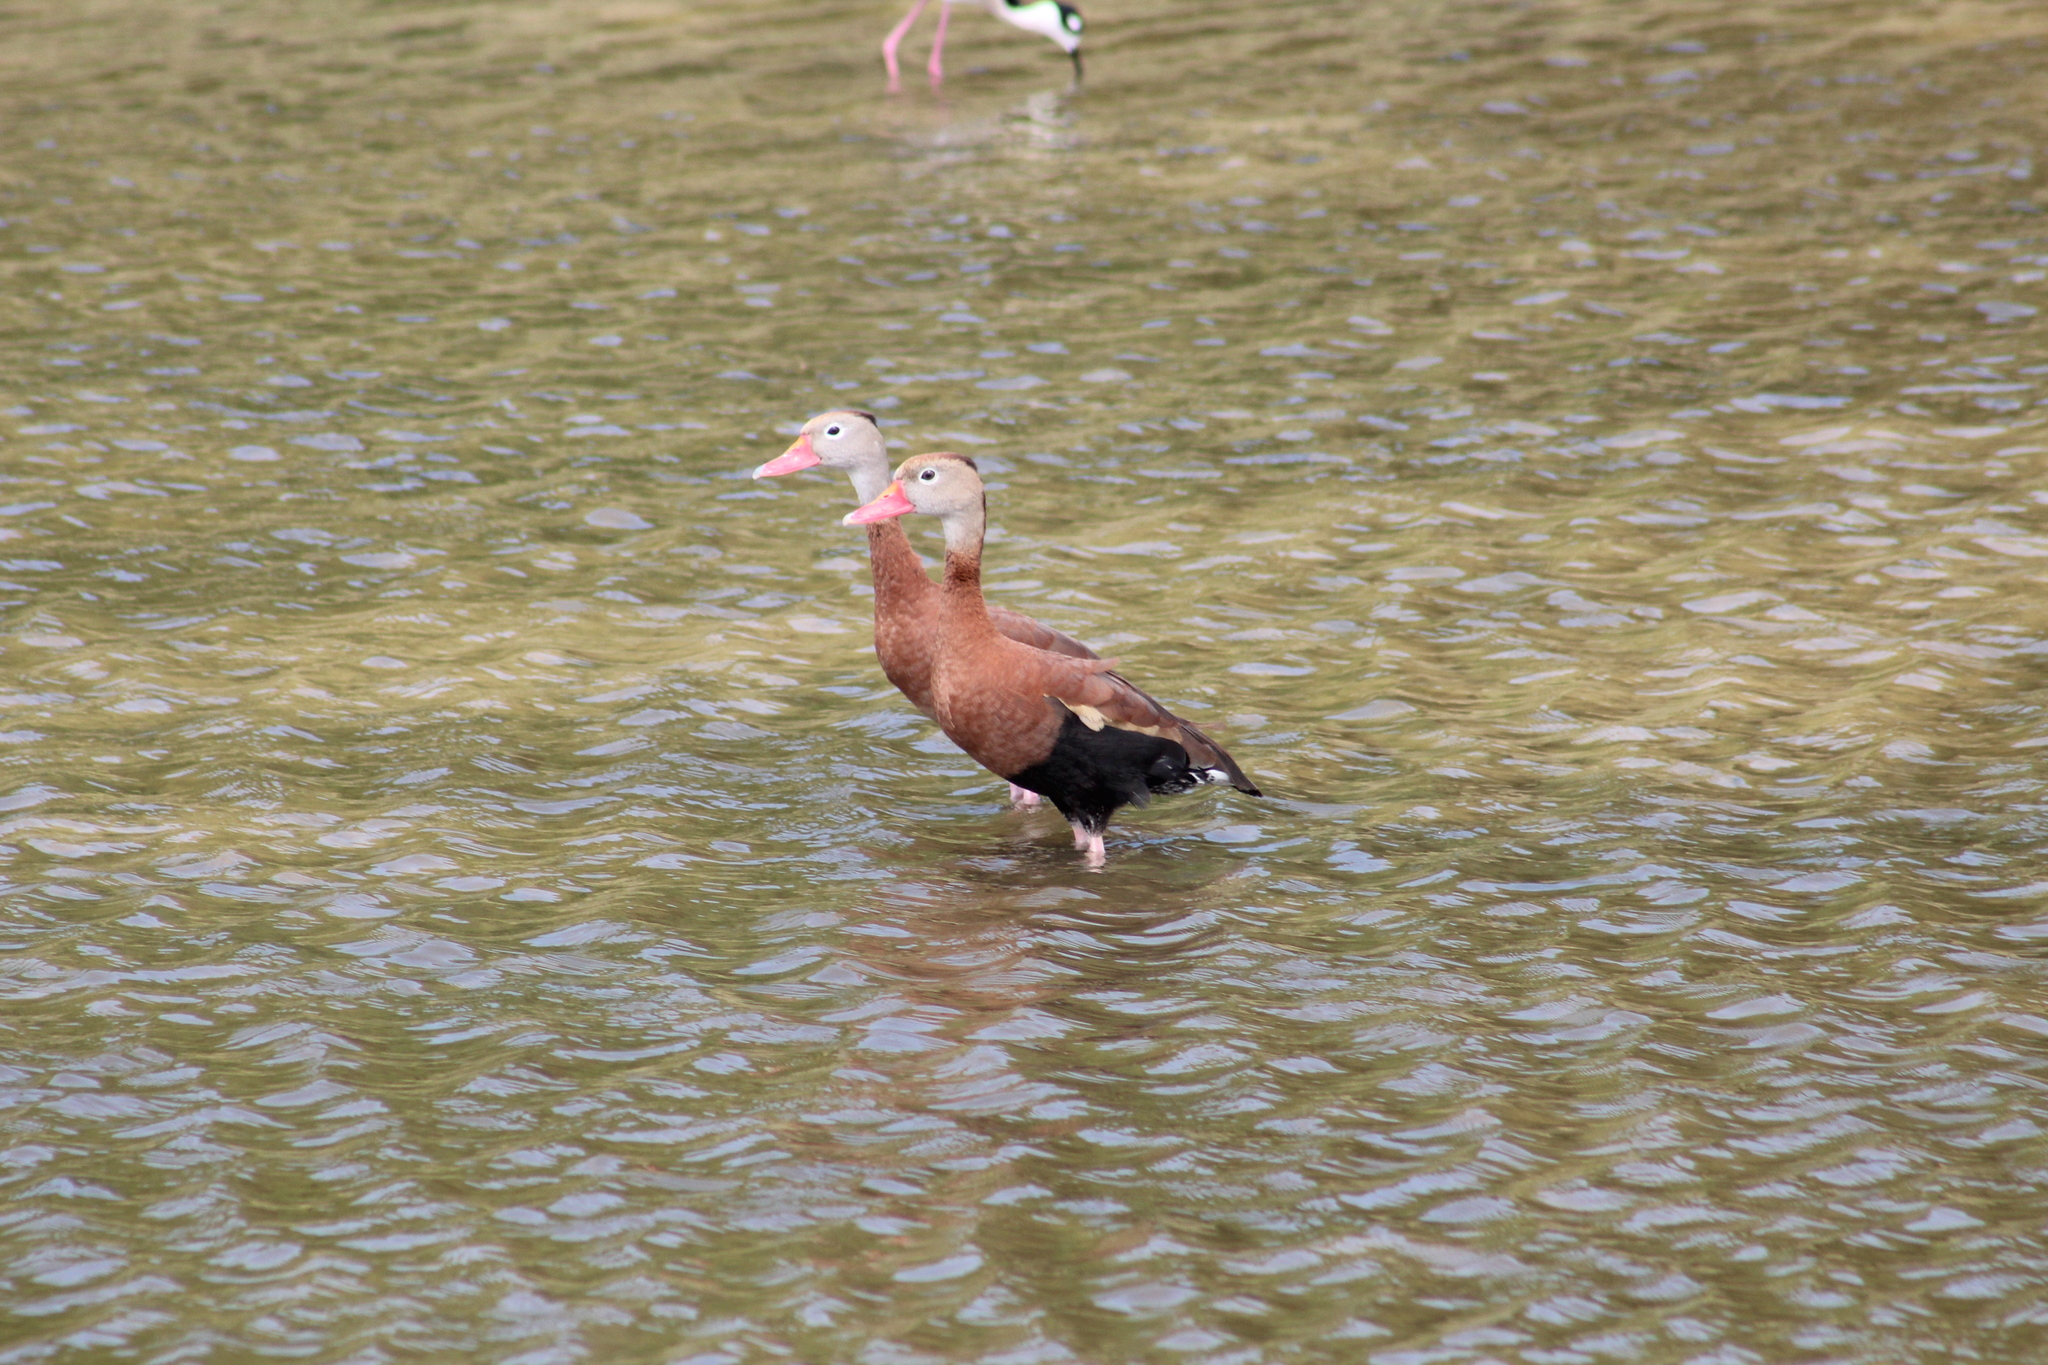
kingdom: Animalia
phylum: Chordata
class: Aves
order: Anseriformes
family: Anatidae
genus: Dendrocygna
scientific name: Dendrocygna autumnalis
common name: Black-bellied whistling duck
